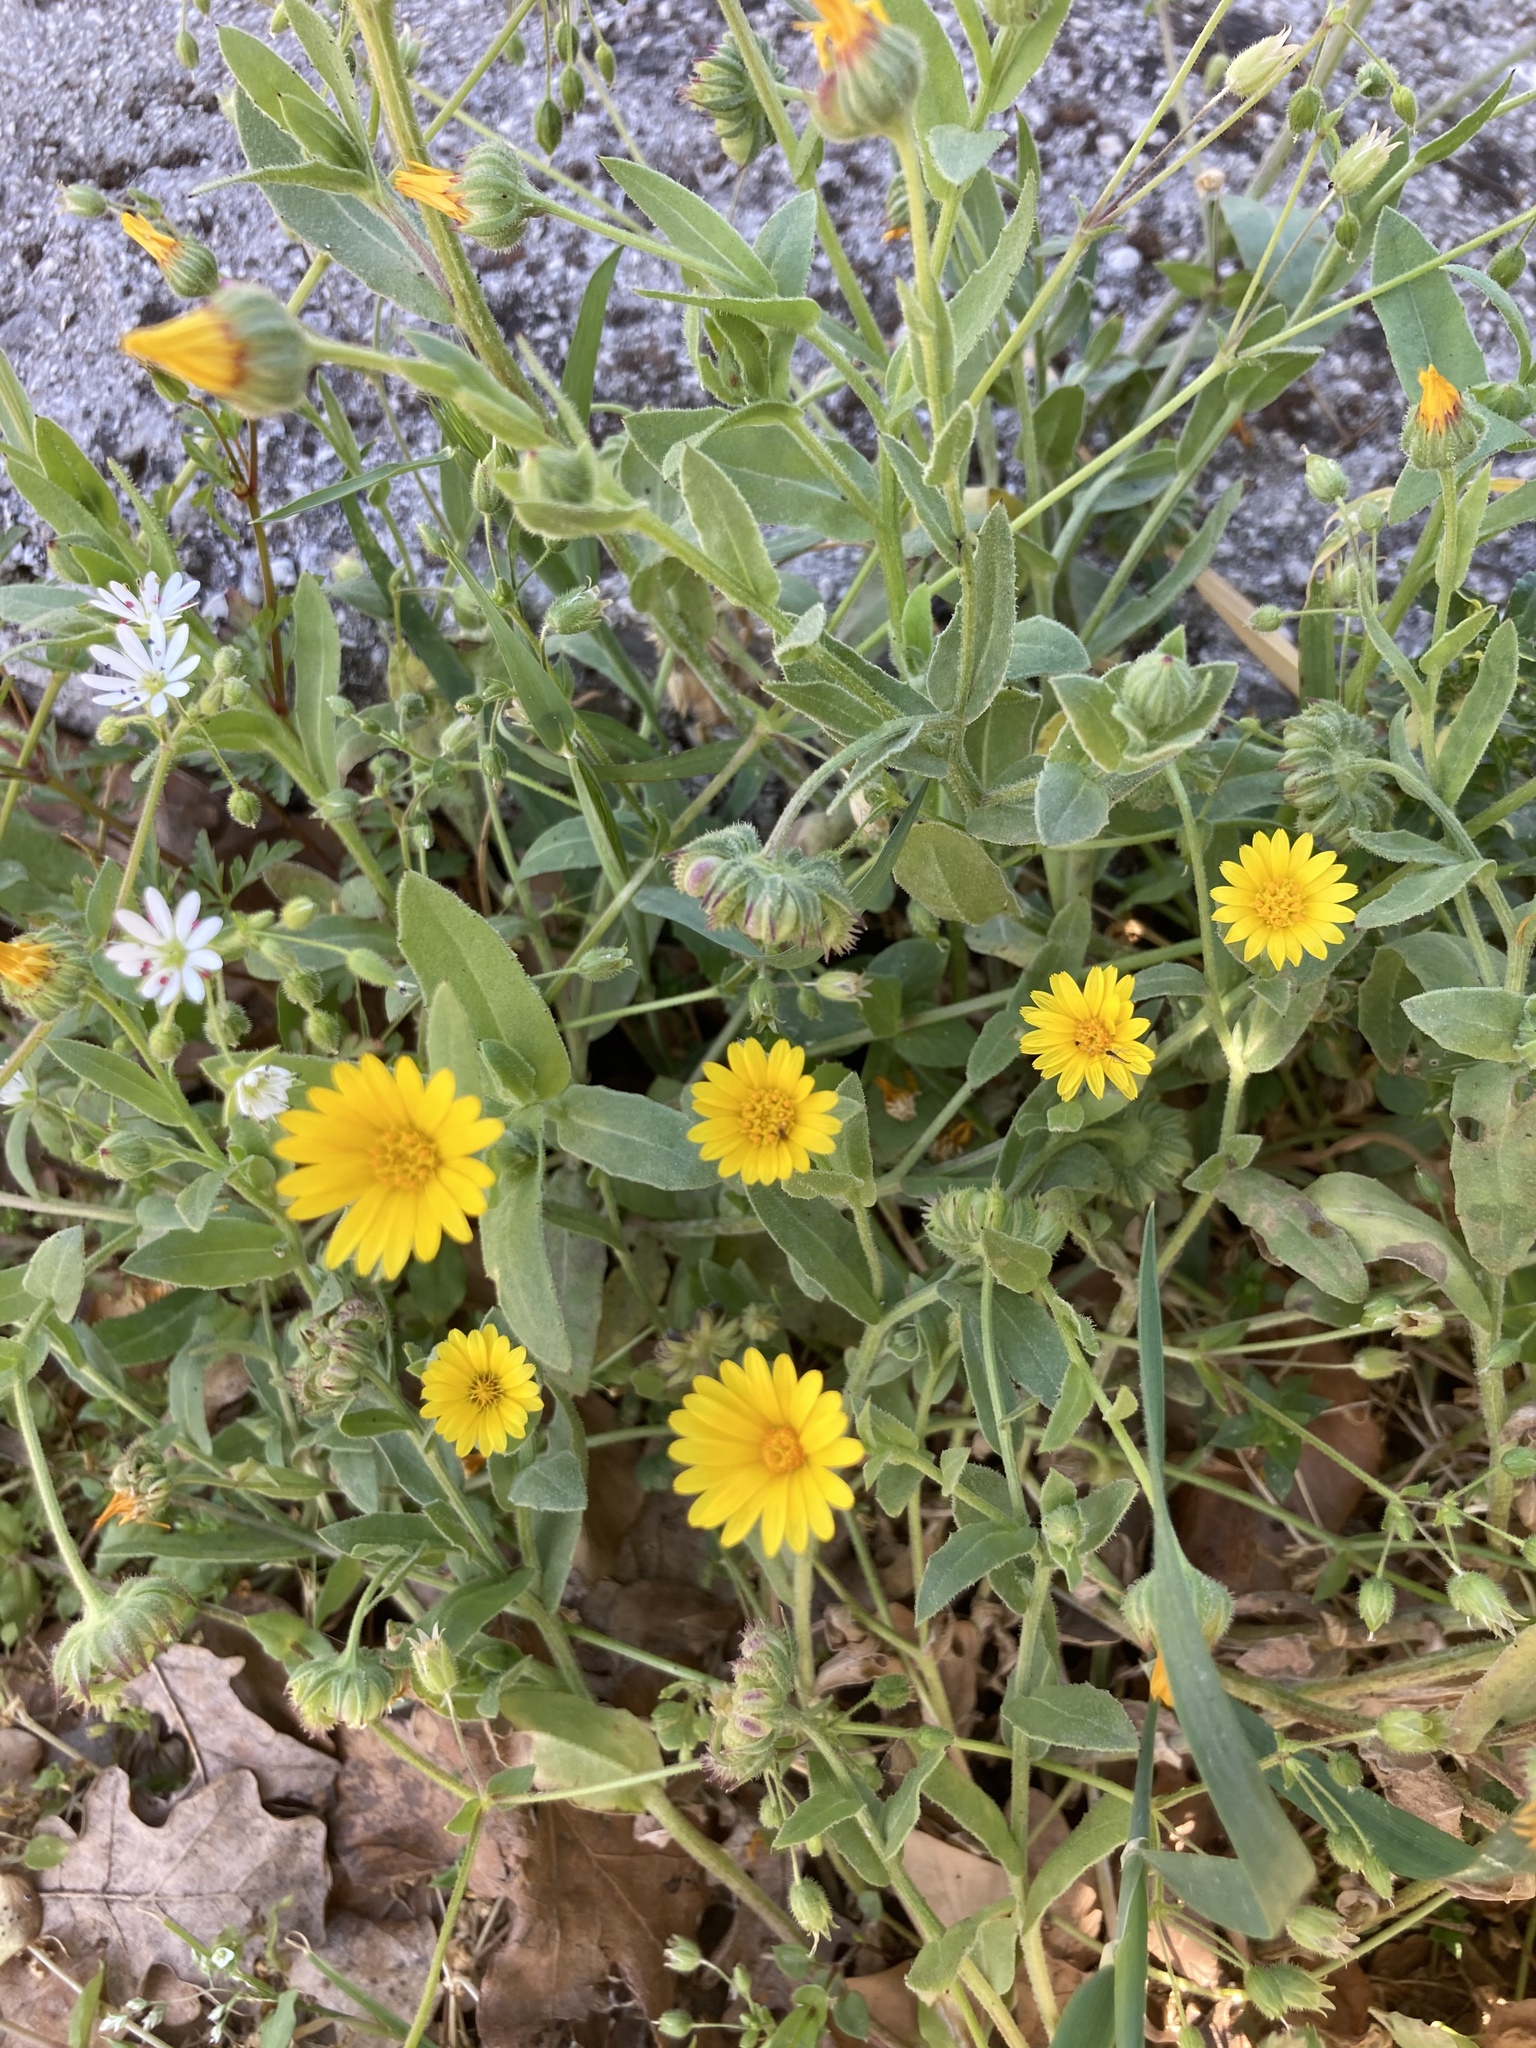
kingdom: Plantae
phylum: Tracheophyta
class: Magnoliopsida
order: Asterales
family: Asteraceae
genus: Calendula
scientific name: Calendula arvensis
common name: Field marigold
